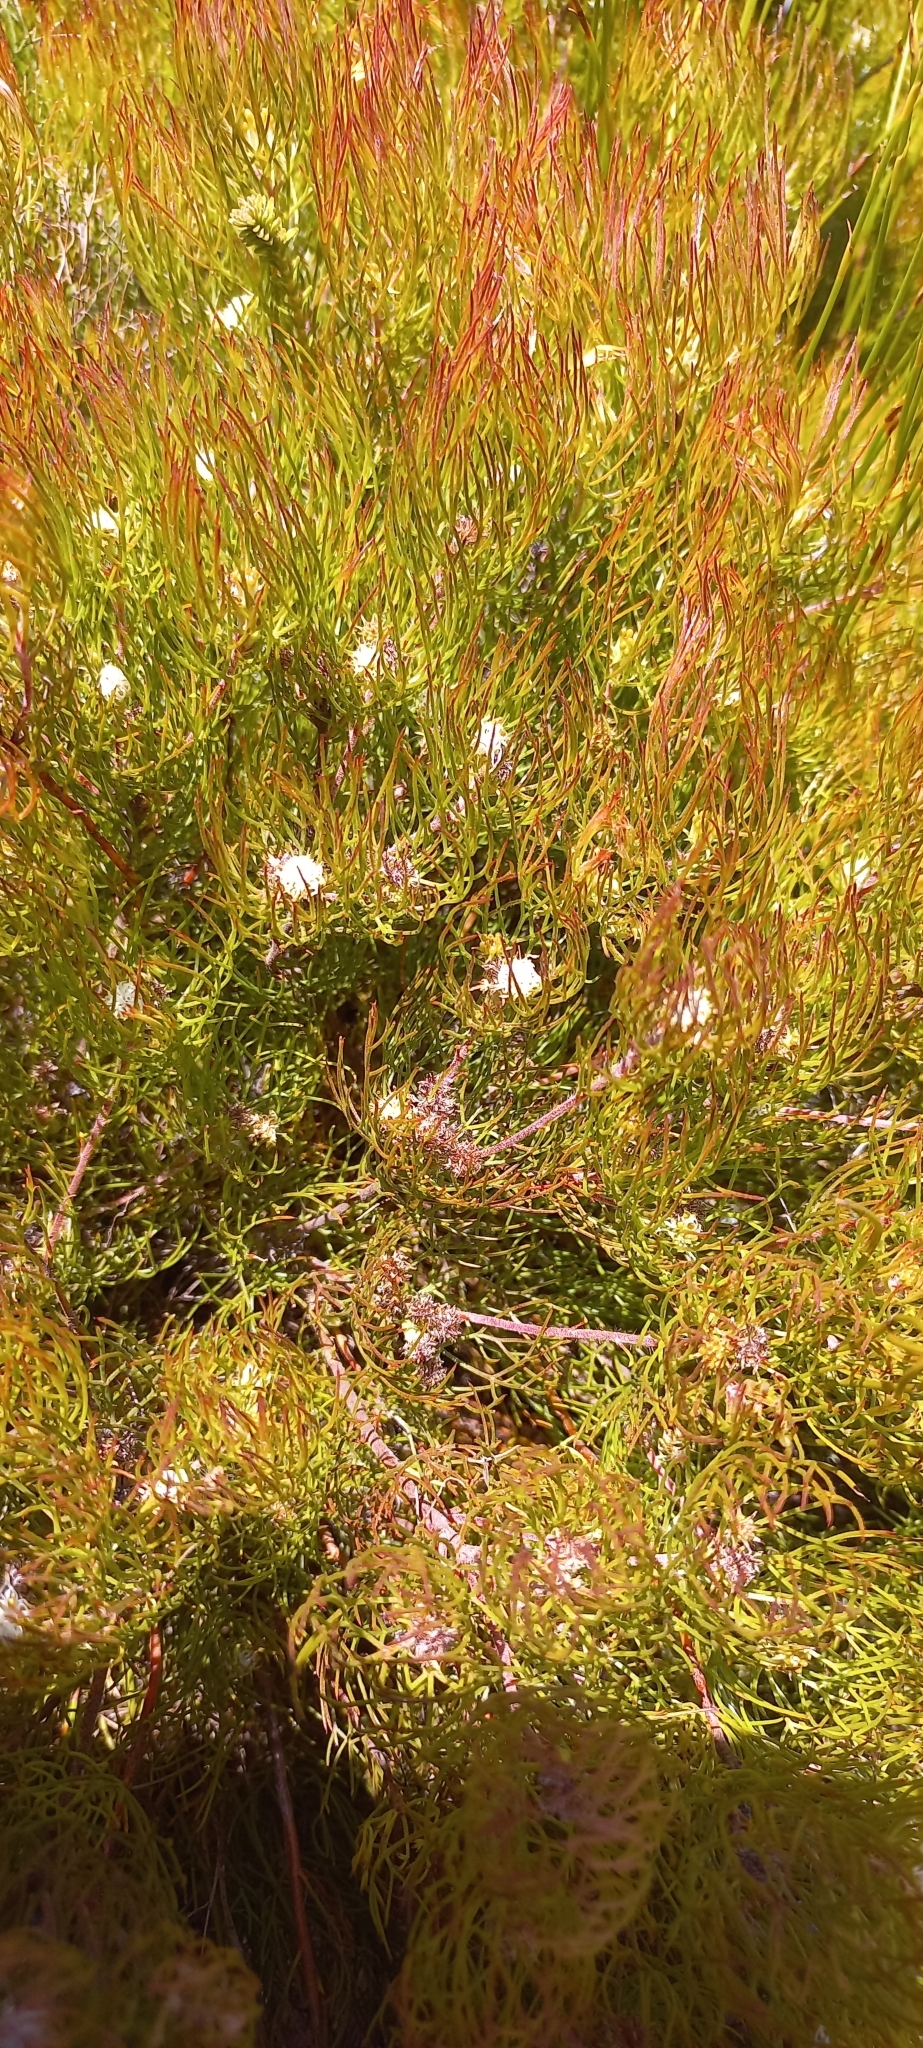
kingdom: Plantae
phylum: Tracheophyta
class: Magnoliopsida
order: Proteales
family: Proteaceae
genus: Serruria
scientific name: Serruria inconspicua
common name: Cryptic spiderhead
